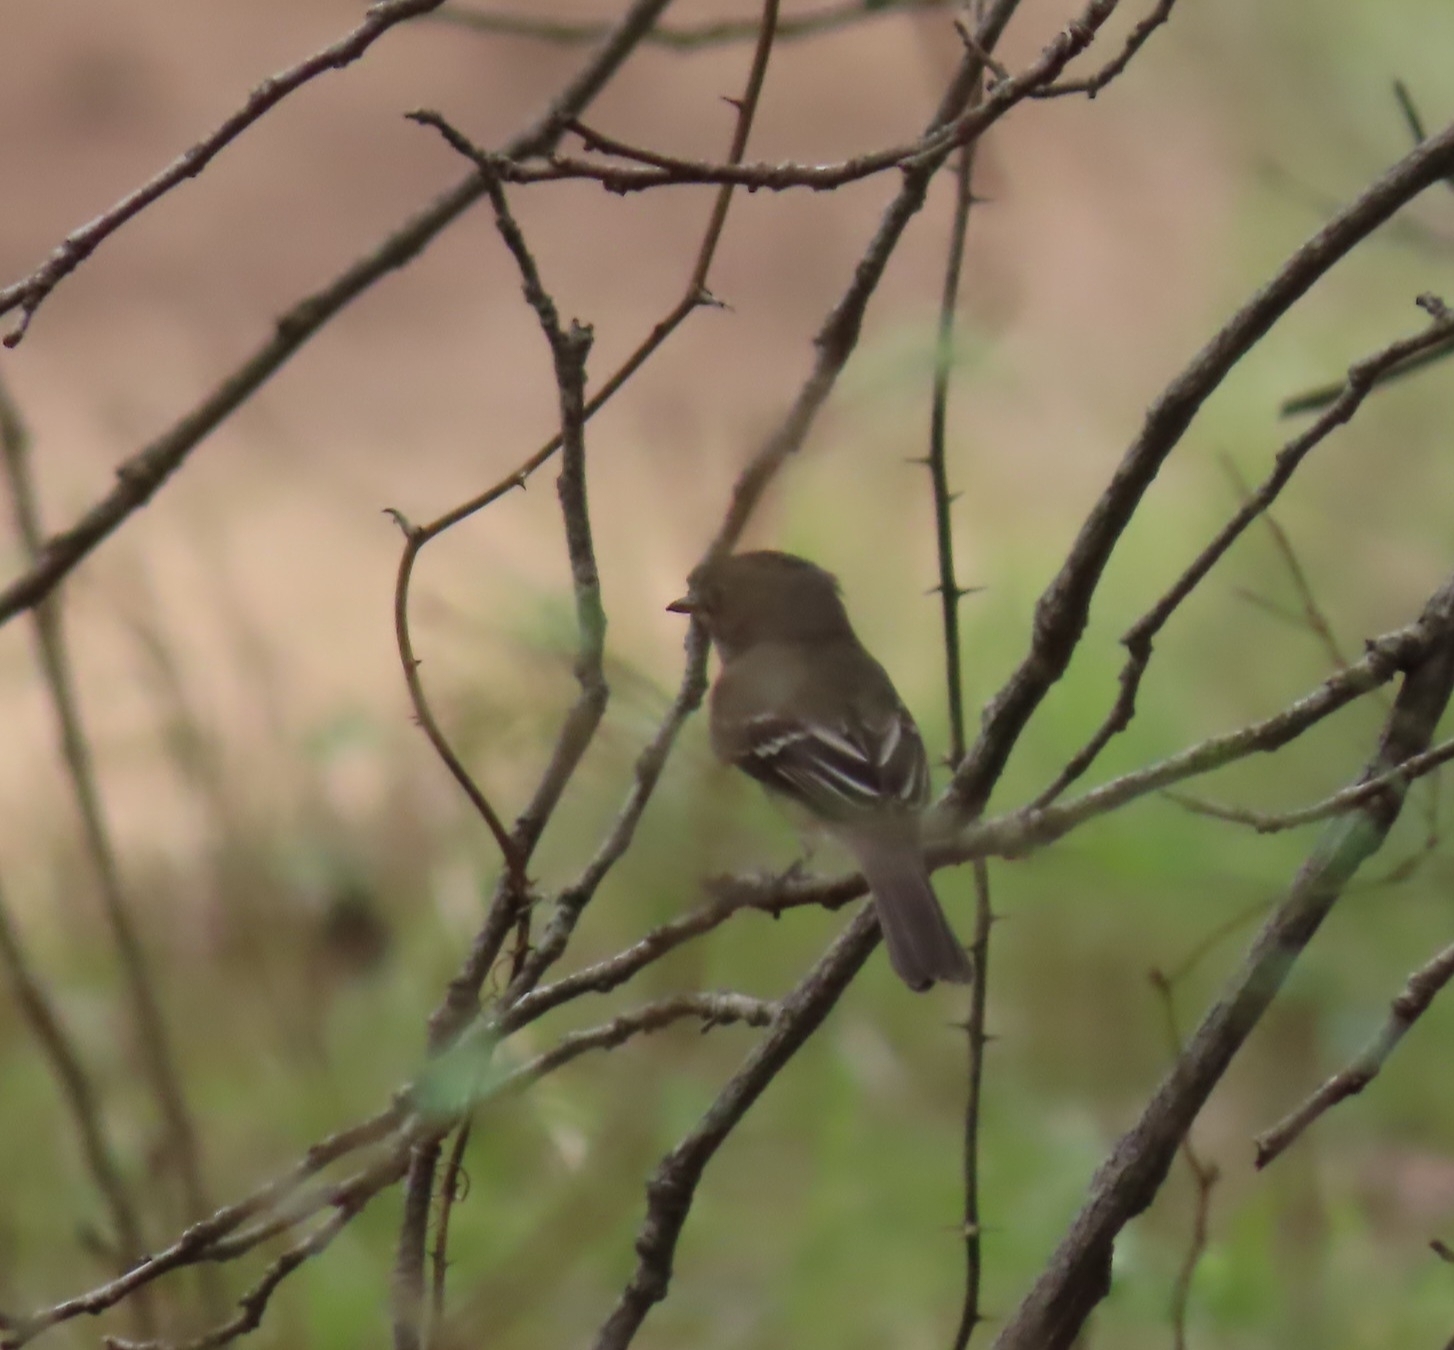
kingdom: Animalia
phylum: Chordata
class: Aves
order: Passeriformes
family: Tyrannidae
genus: Empidonax
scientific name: Empidonax minimus
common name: Least flycatcher
